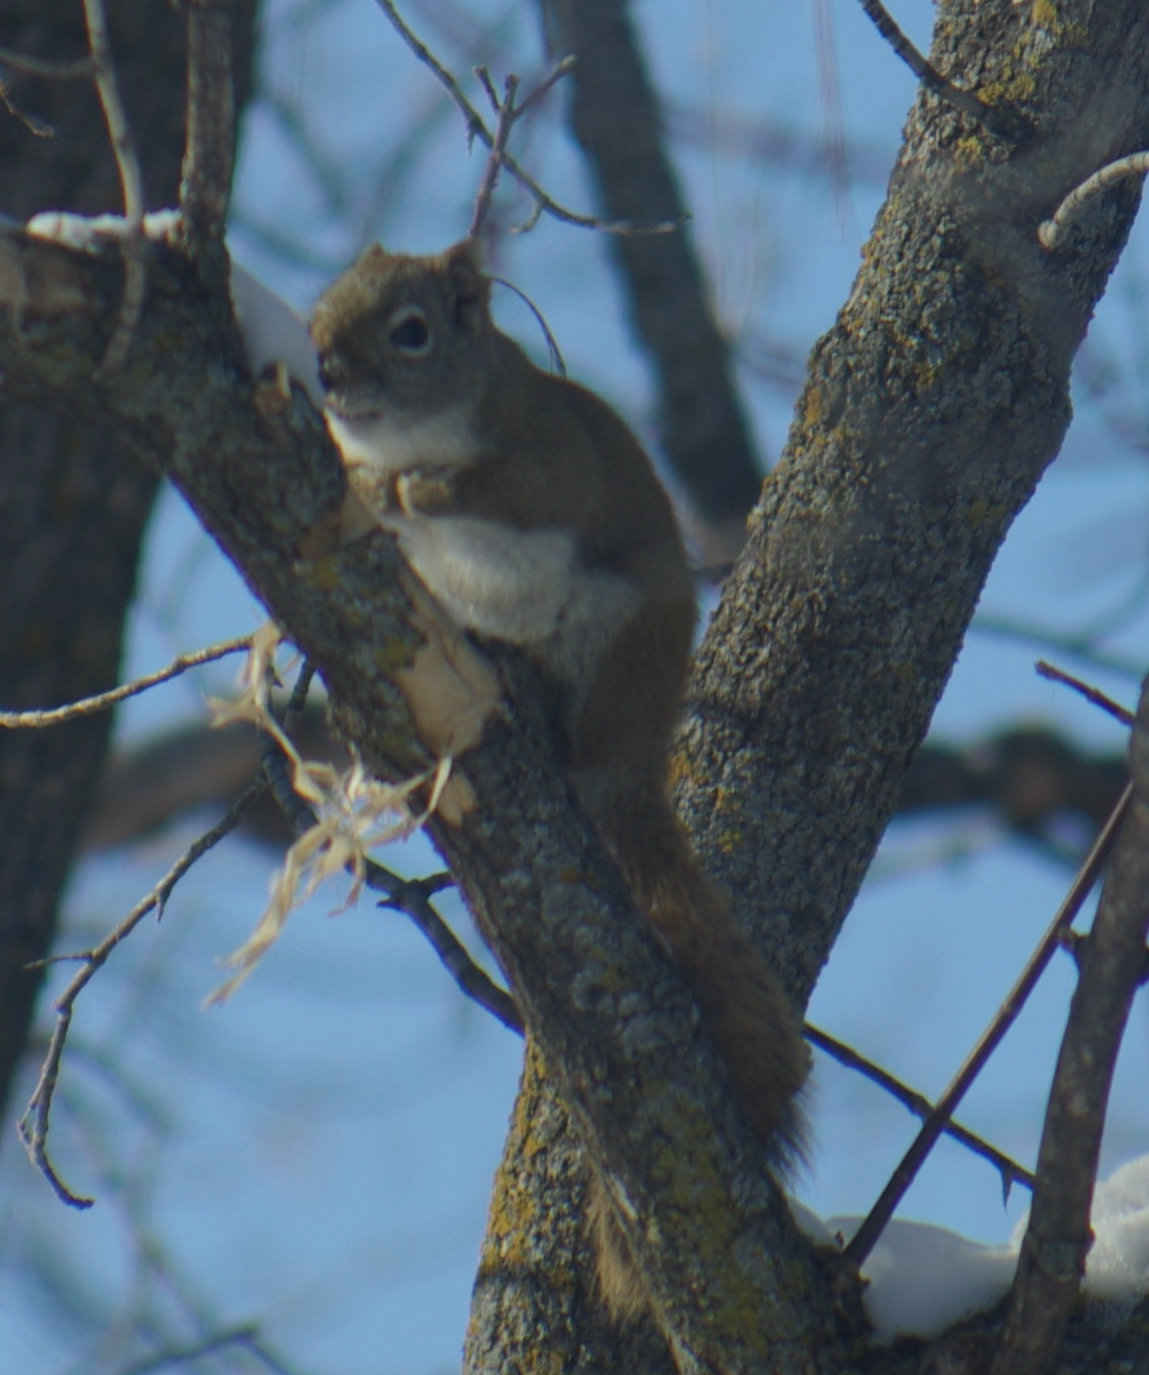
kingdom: Animalia
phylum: Chordata
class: Mammalia
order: Rodentia
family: Sciuridae
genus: Tamiasciurus
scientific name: Tamiasciurus hudsonicus
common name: Red squirrel
